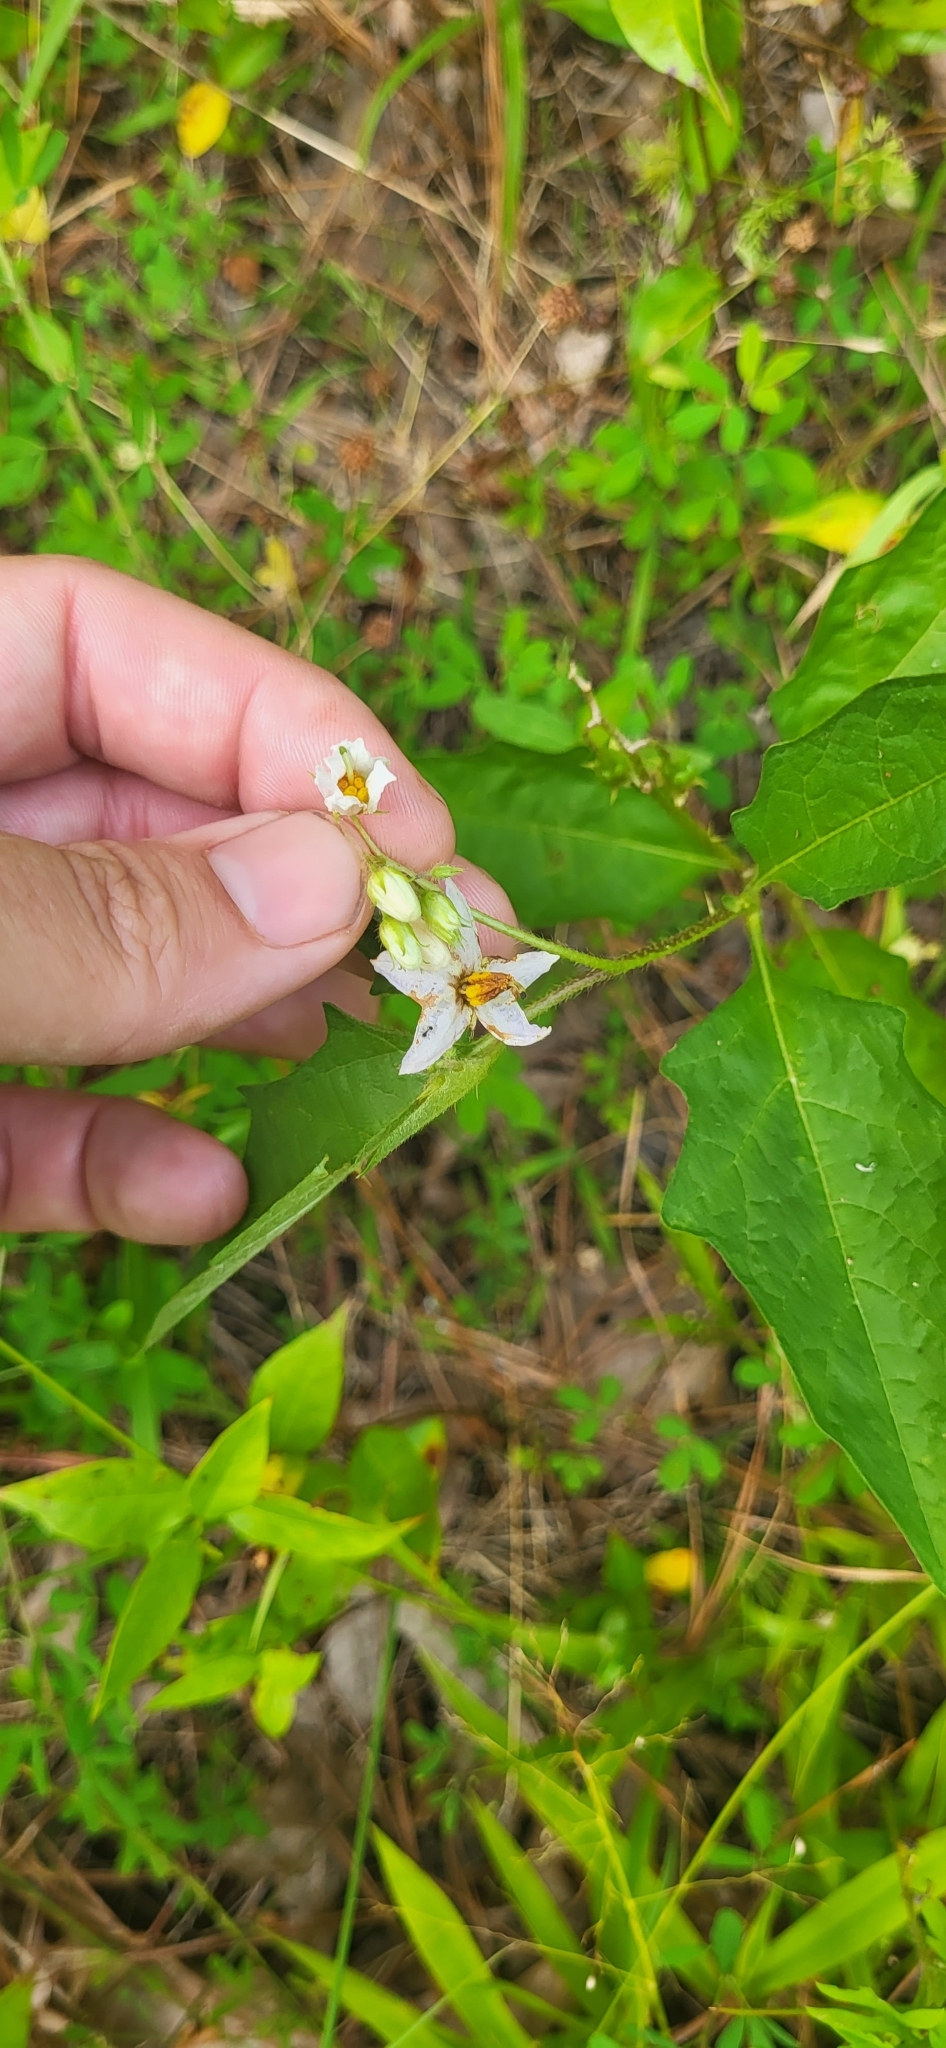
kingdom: Plantae
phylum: Tracheophyta
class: Magnoliopsida
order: Solanales
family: Solanaceae
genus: Solanum
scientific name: Solanum carolinense
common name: Horse-nettle
